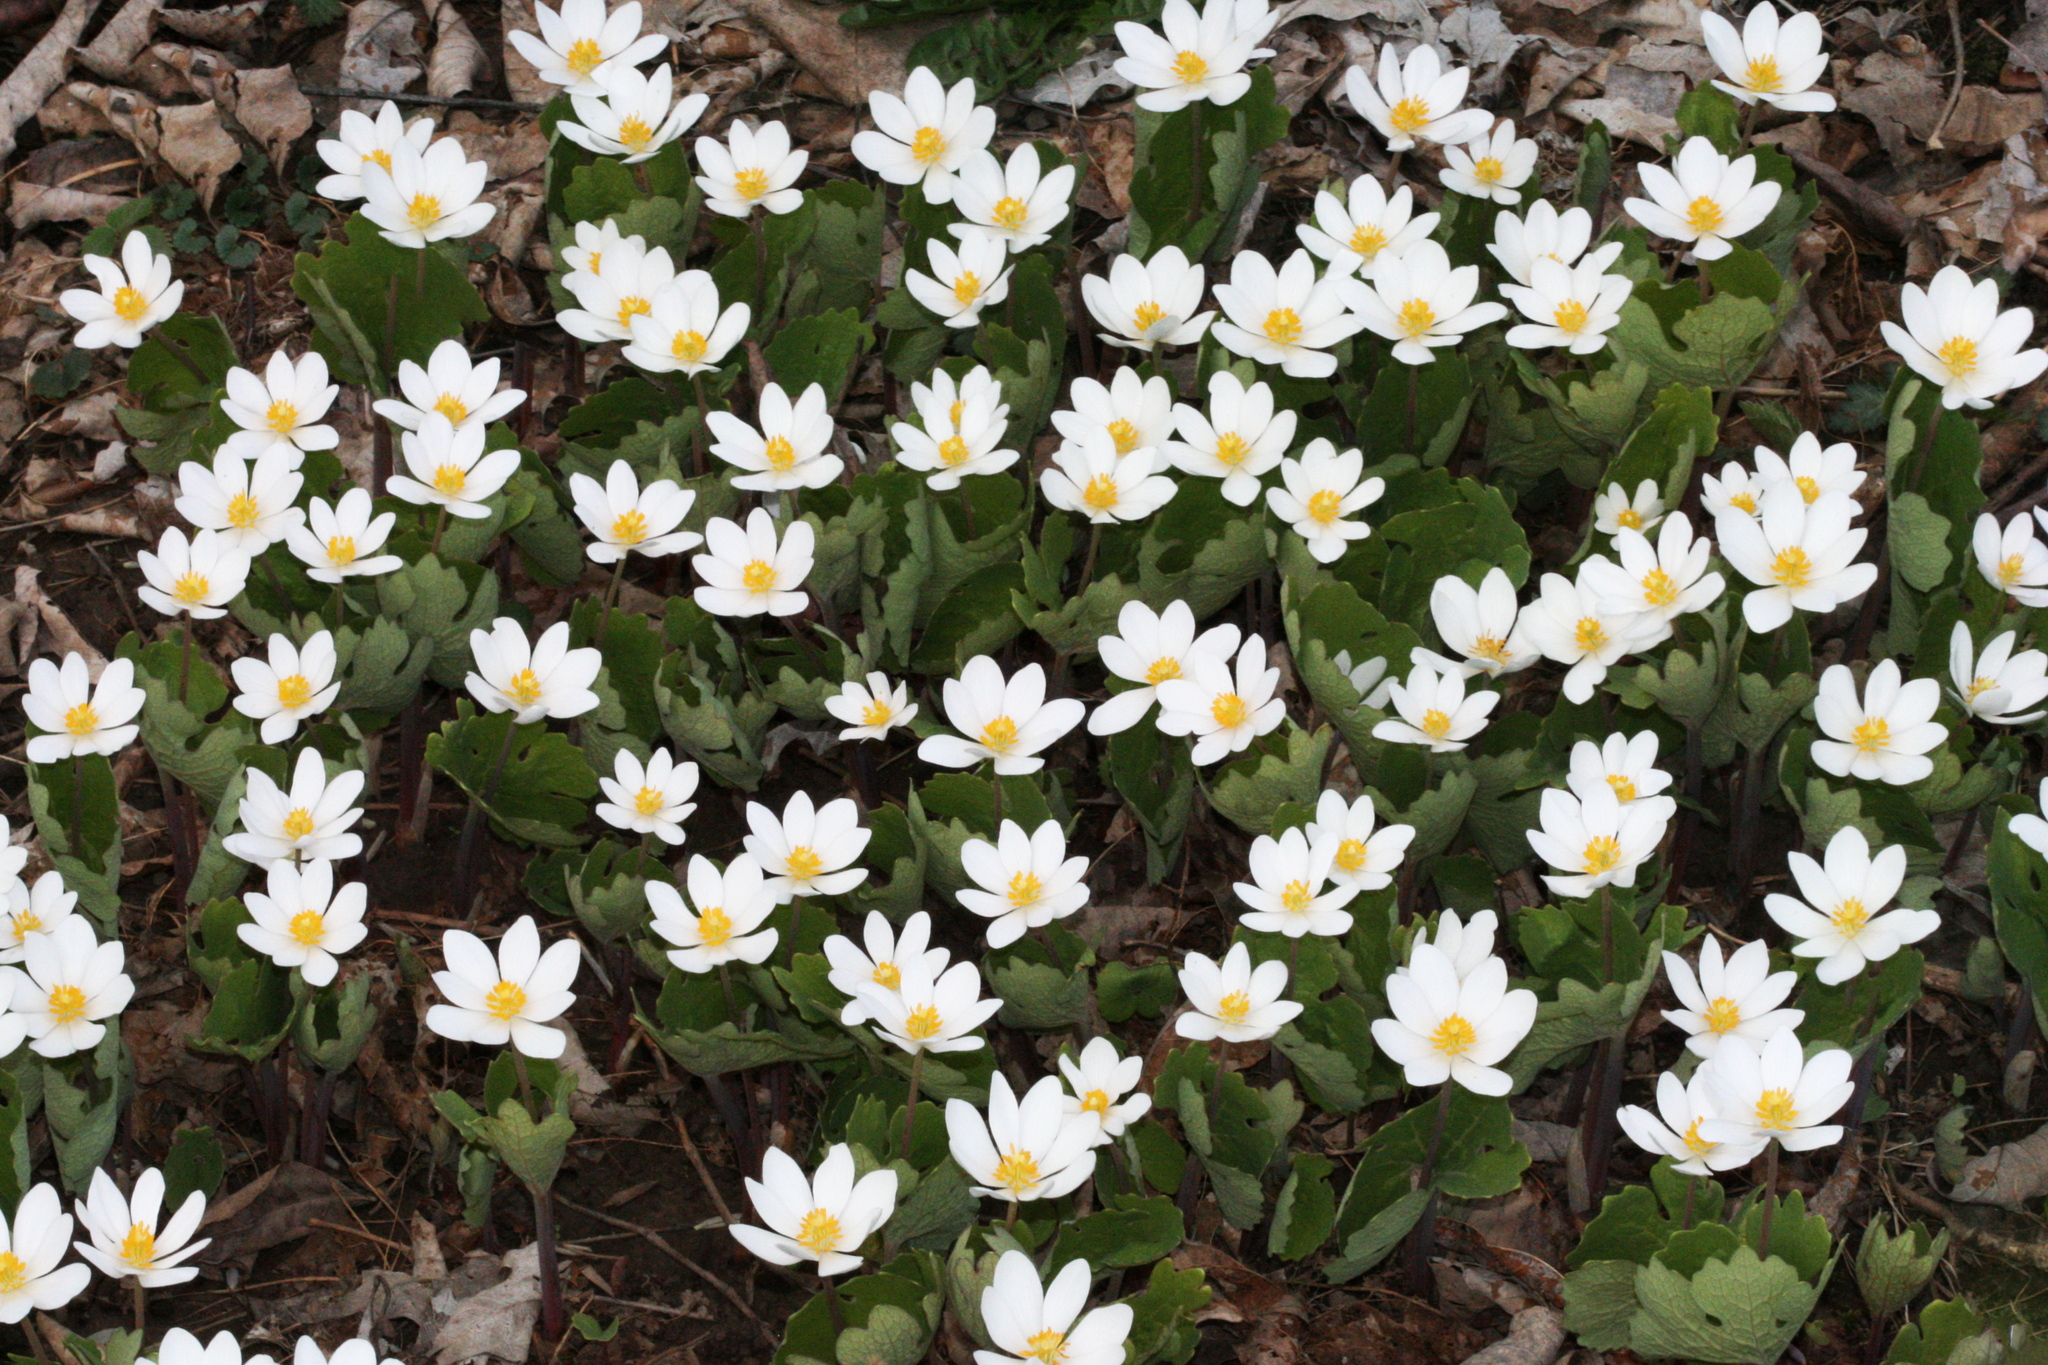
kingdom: Plantae
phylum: Tracheophyta
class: Magnoliopsida
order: Ranunculales
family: Papaveraceae
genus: Sanguinaria
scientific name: Sanguinaria canadensis
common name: Bloodroot
